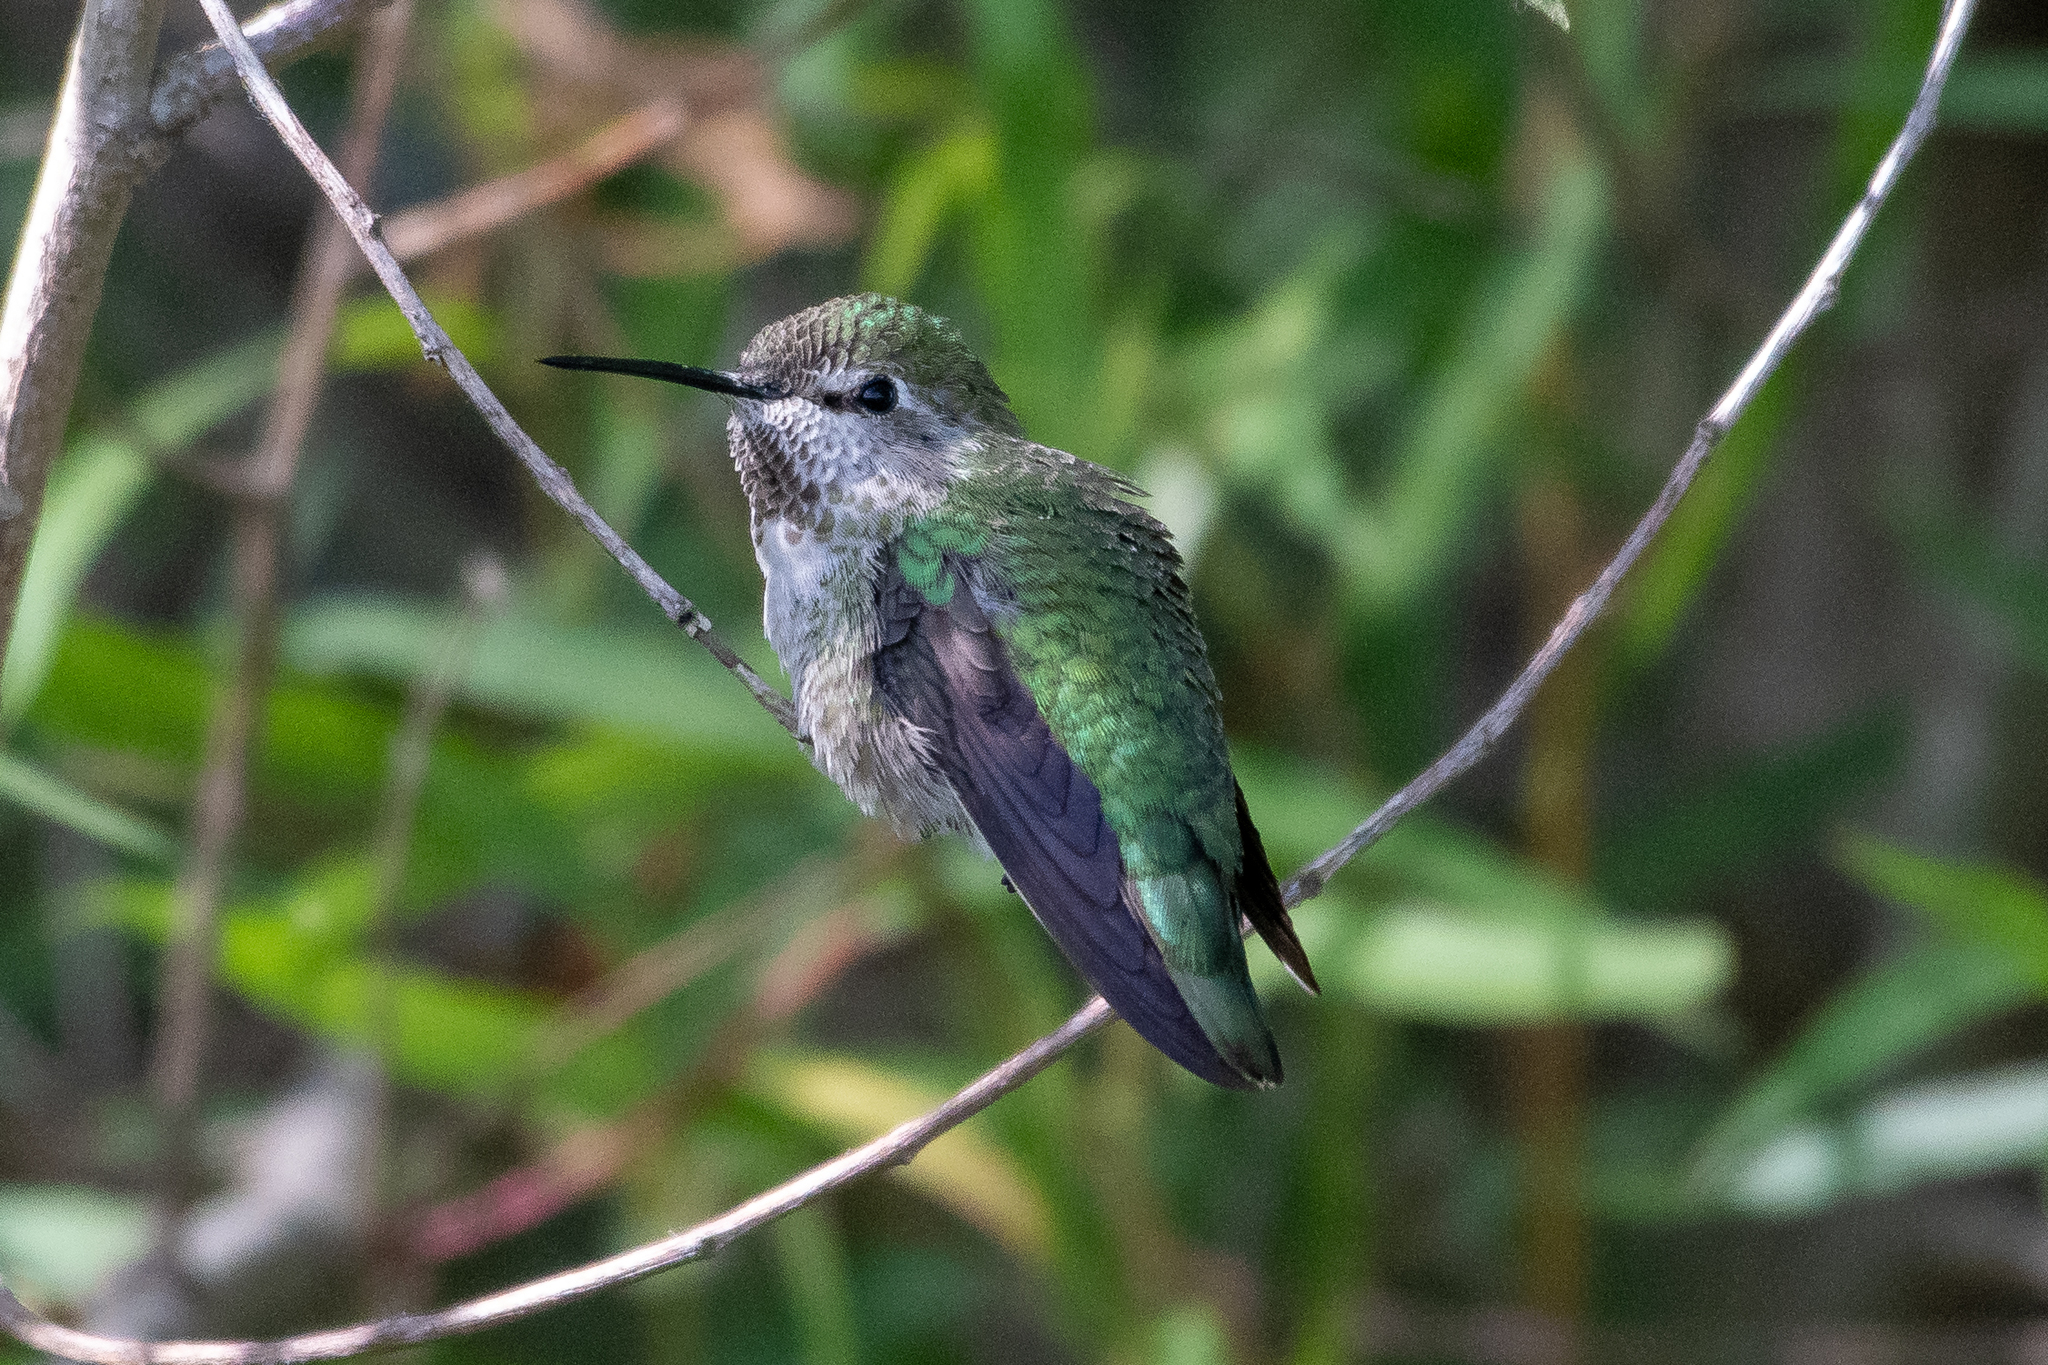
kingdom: Animalia
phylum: Chordata
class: Aves
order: Apodiformes
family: Trochilidae
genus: Calypte
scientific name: Calypte anna
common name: Anna's hummingbird
